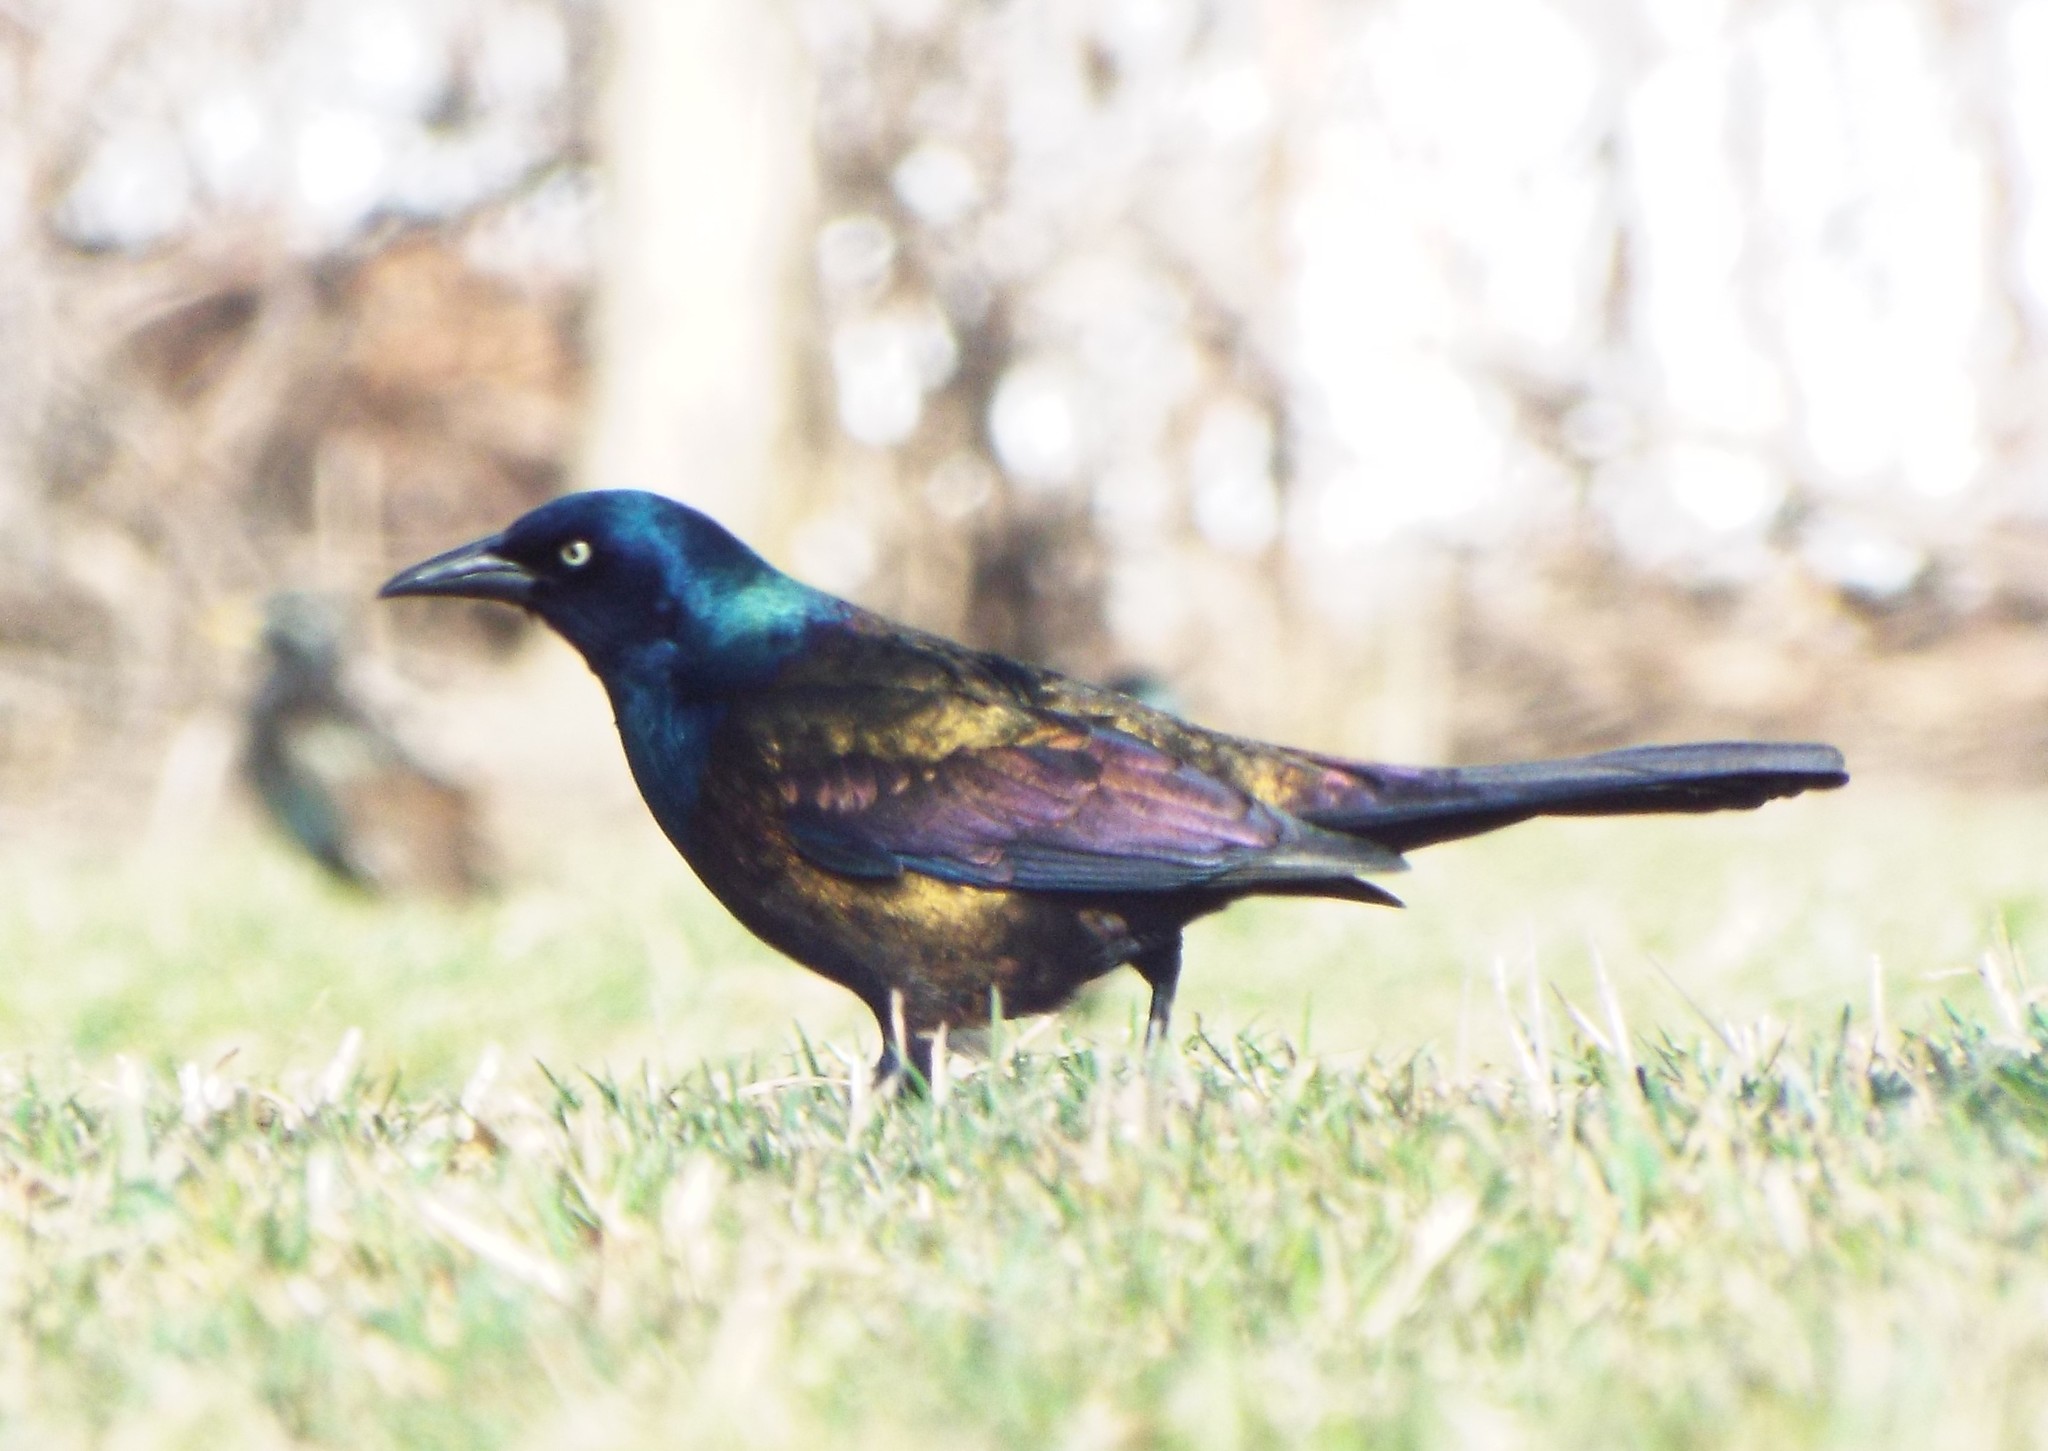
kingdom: Animalia
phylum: Chordata
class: Aves
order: Passeriformes
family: Icteridae
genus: Quiscalus
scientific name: Quiscalus quiscula
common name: Common grackle
